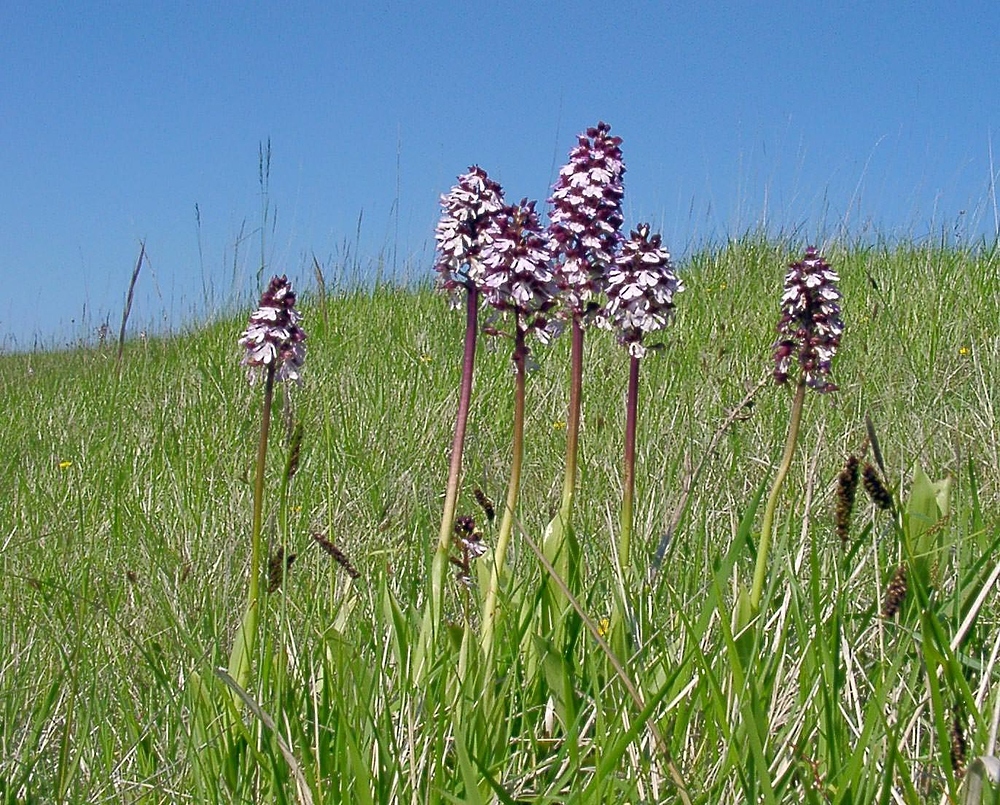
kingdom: Plantae
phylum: Tracheophyta
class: Liliopsida
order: Asparagales
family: Orchidaceae
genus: Orchis
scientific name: Orchis purpurea
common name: Lady orchid
